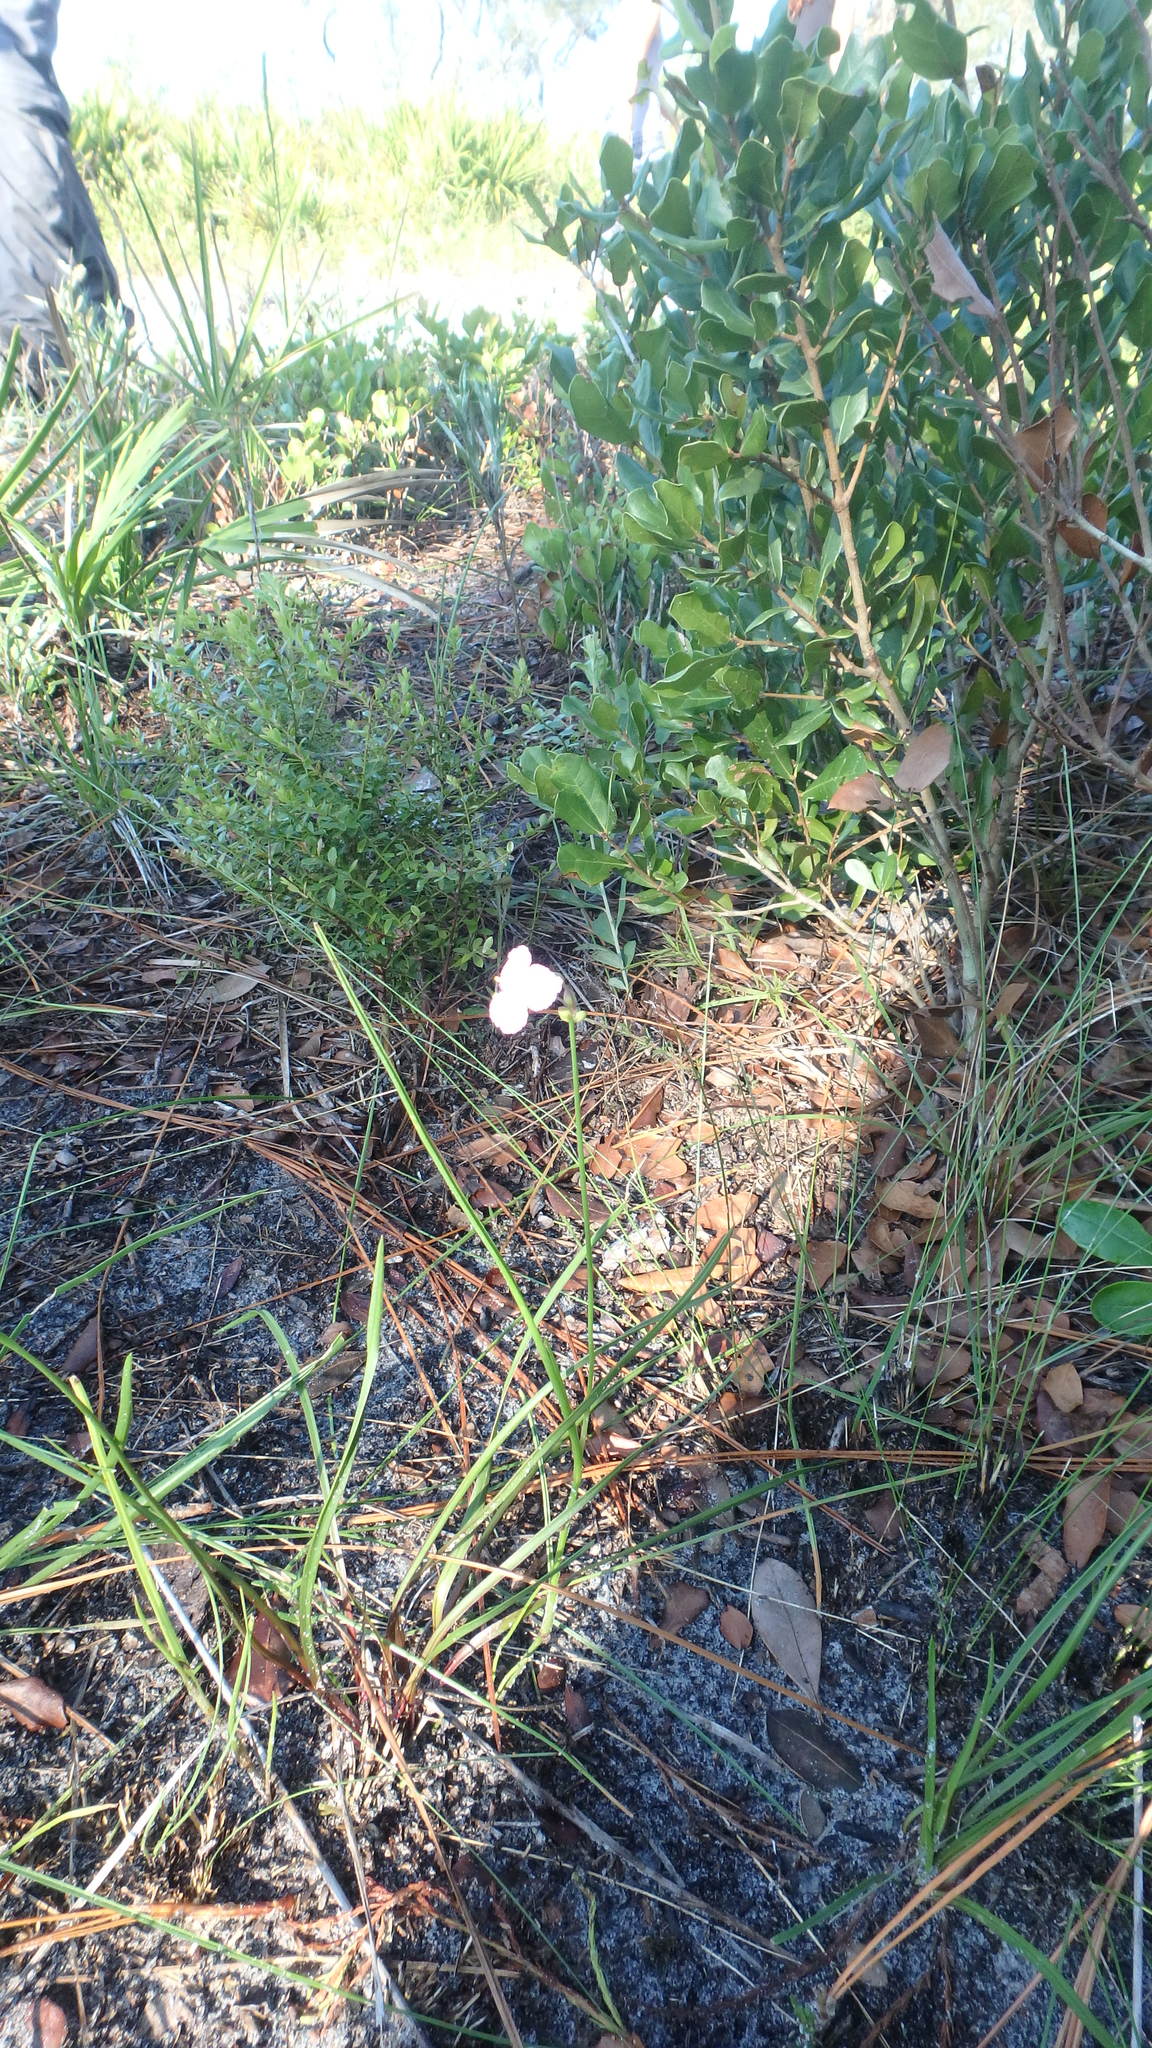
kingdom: Plantae
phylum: Tracheophyta
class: Liliopsida
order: Commelinales
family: Commelinaceae
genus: Callisia
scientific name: Callisia ornata
